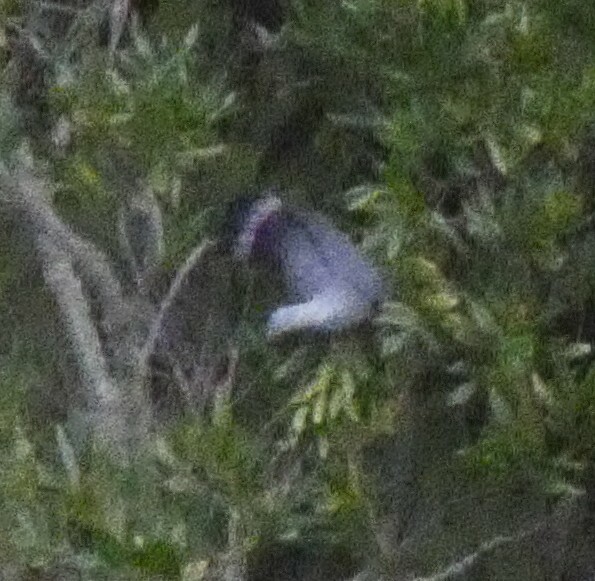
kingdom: Animalia
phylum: Chordata
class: Aves
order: Columbiformes
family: Columbidae
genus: Columba
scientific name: Columba trocaz
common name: Trocaz pigeon
